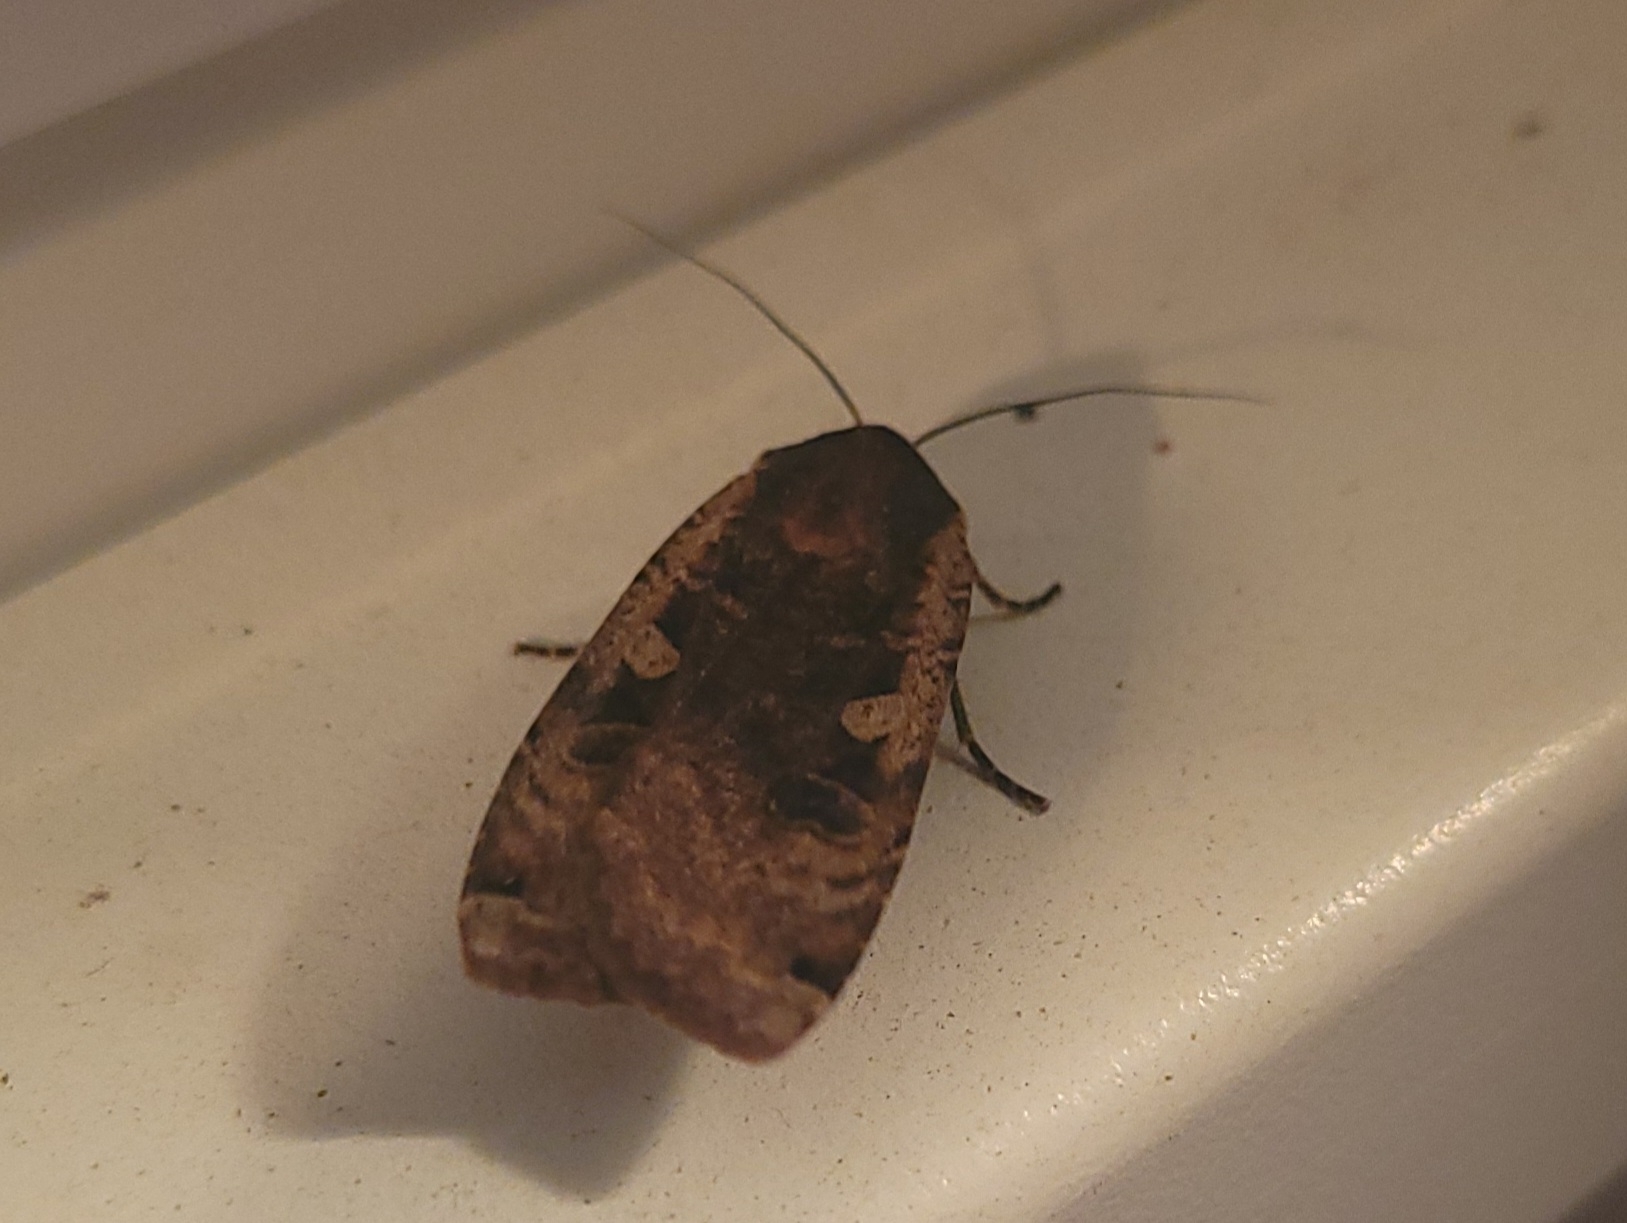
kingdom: Animalia
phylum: Arthropoda
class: Insecta
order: Lepidoptera
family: Noctuidae
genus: Noctua
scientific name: Noctua pronuba
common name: Large yellow underwing
